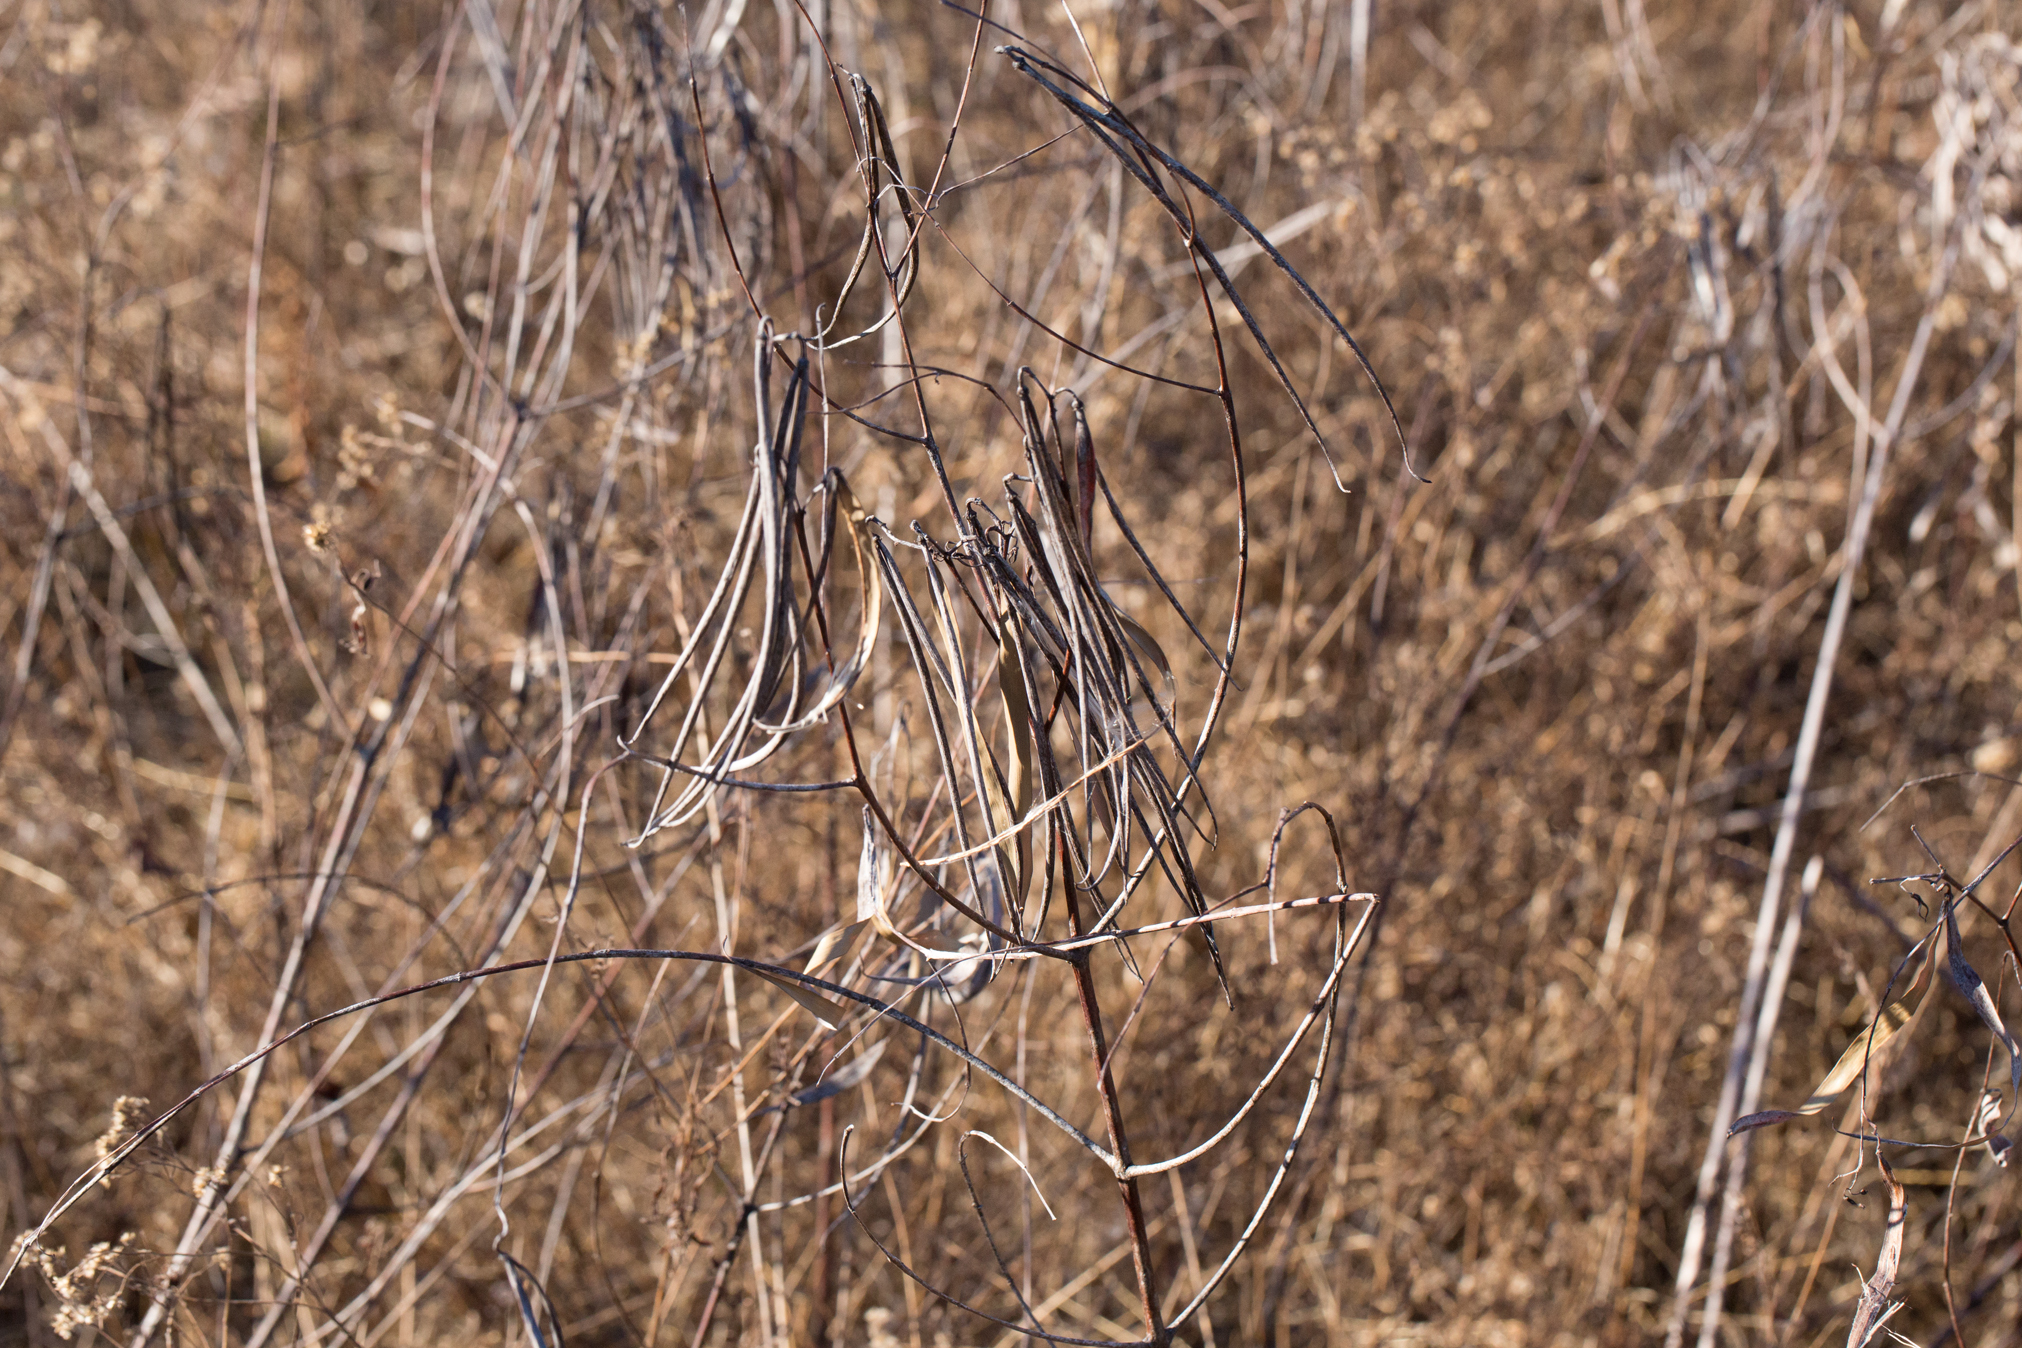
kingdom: Plantae
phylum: Tracheophyta
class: Magnoliopsida
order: Gentianales
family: Apocynaceae
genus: Apocynum
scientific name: Apocynum cannabinum
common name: Hemp dogbane
